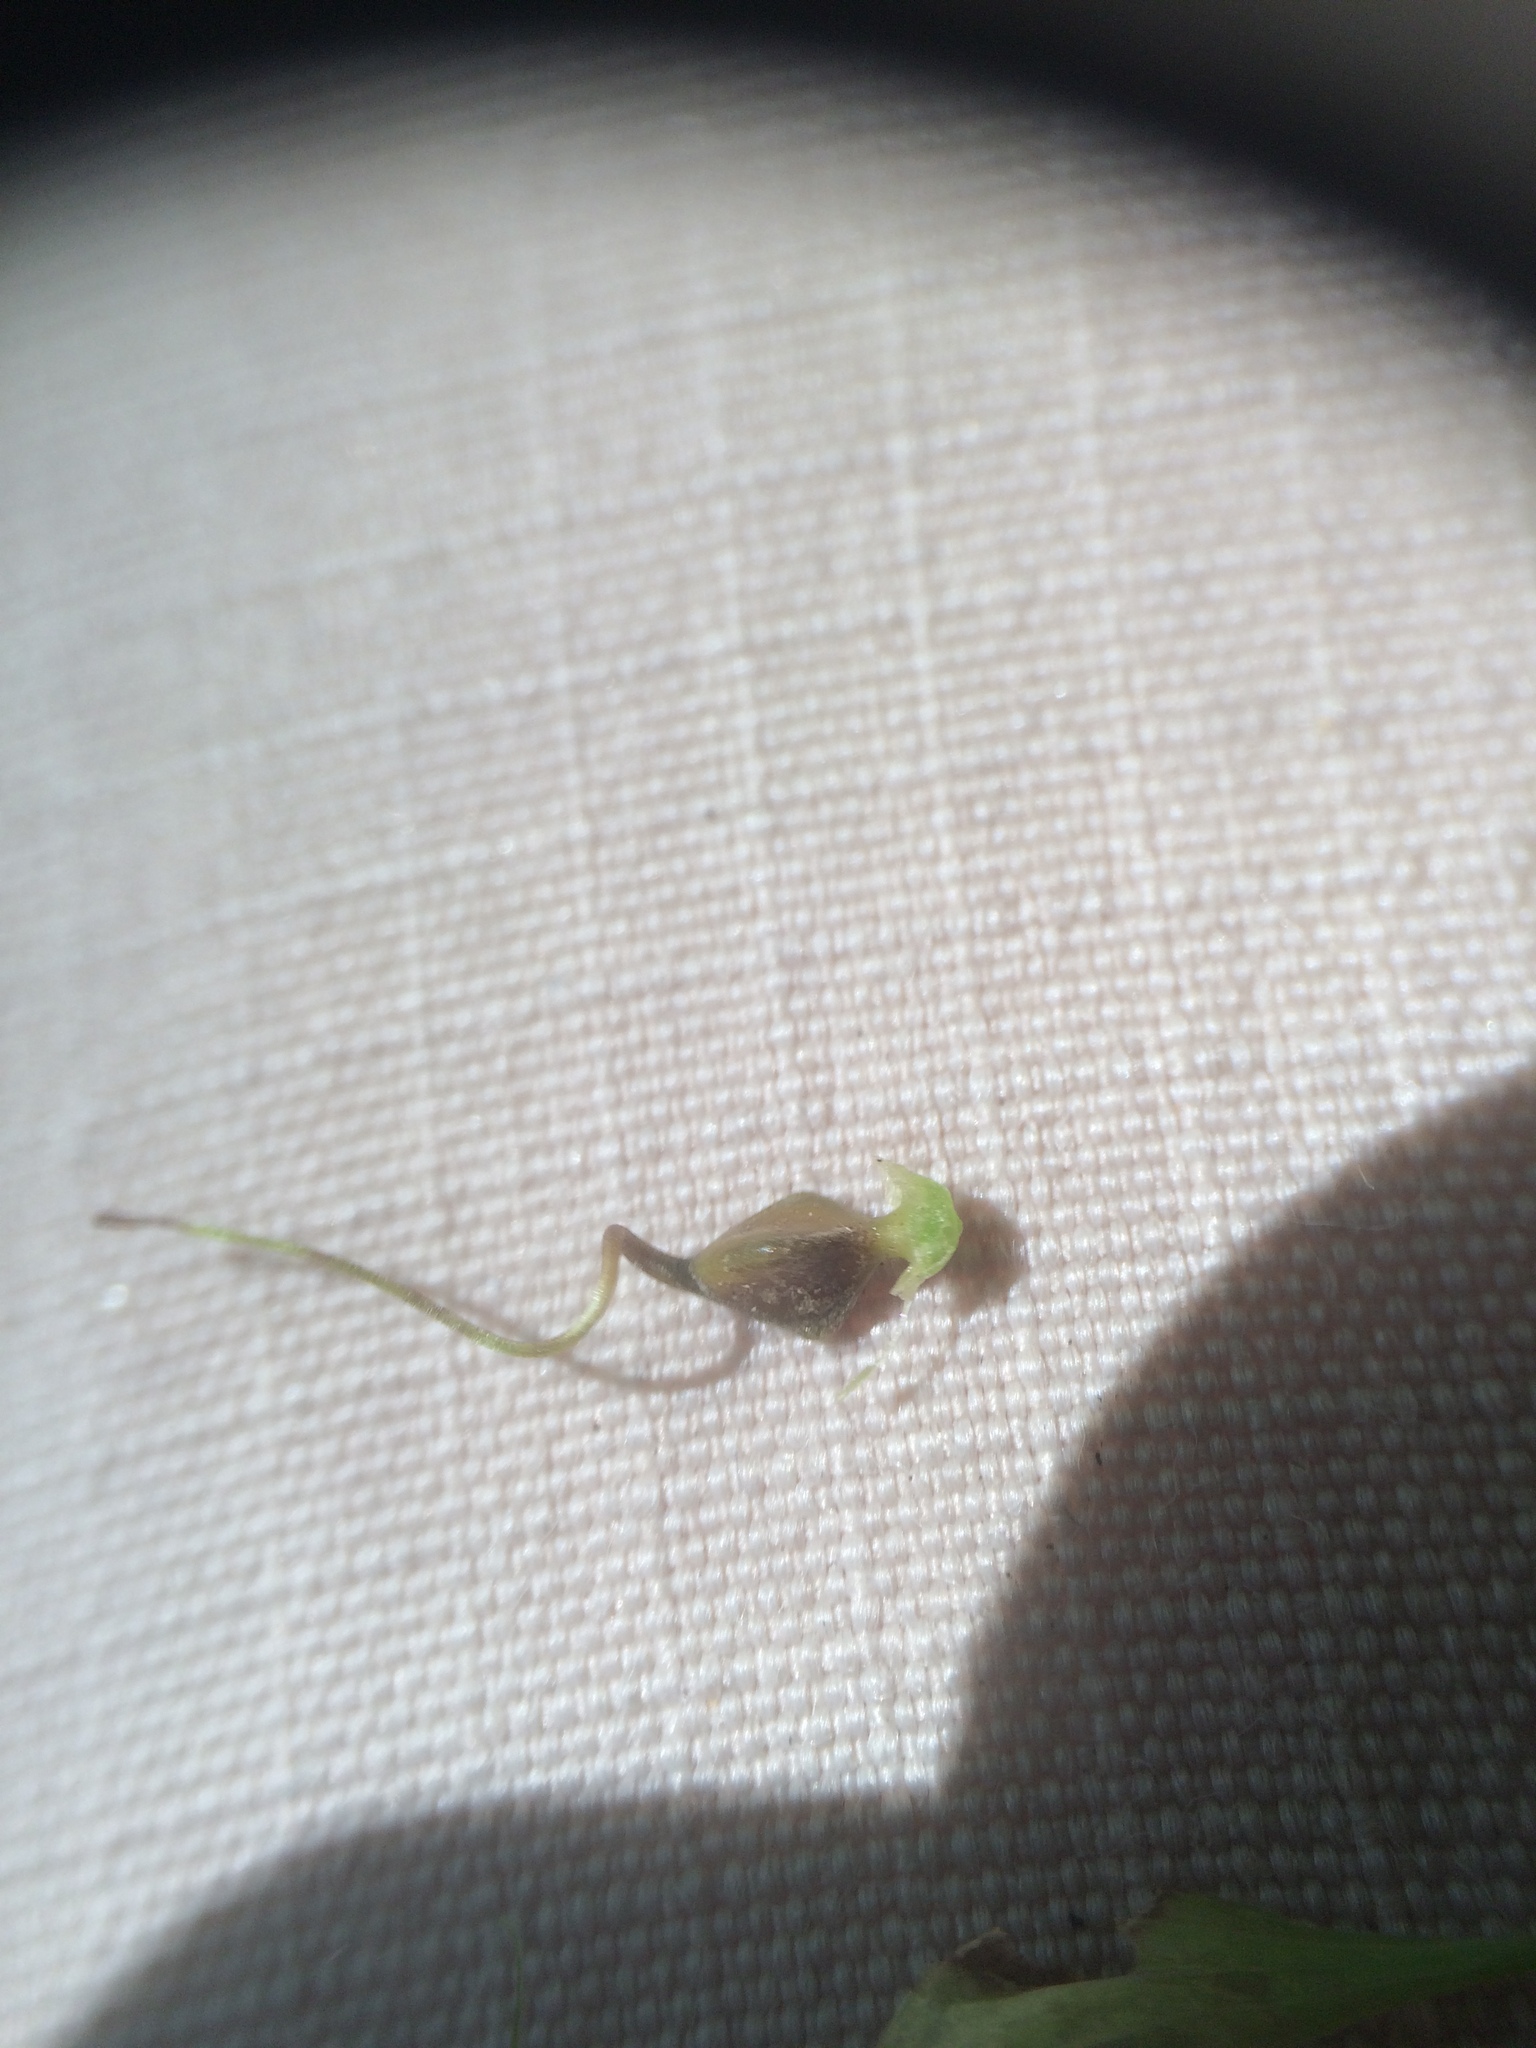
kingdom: Plantae
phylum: Tracheophyta
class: Liliopsida
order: Poales
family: Cyperaceae
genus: Carex
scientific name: Carex lupulina
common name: Hop sedge
